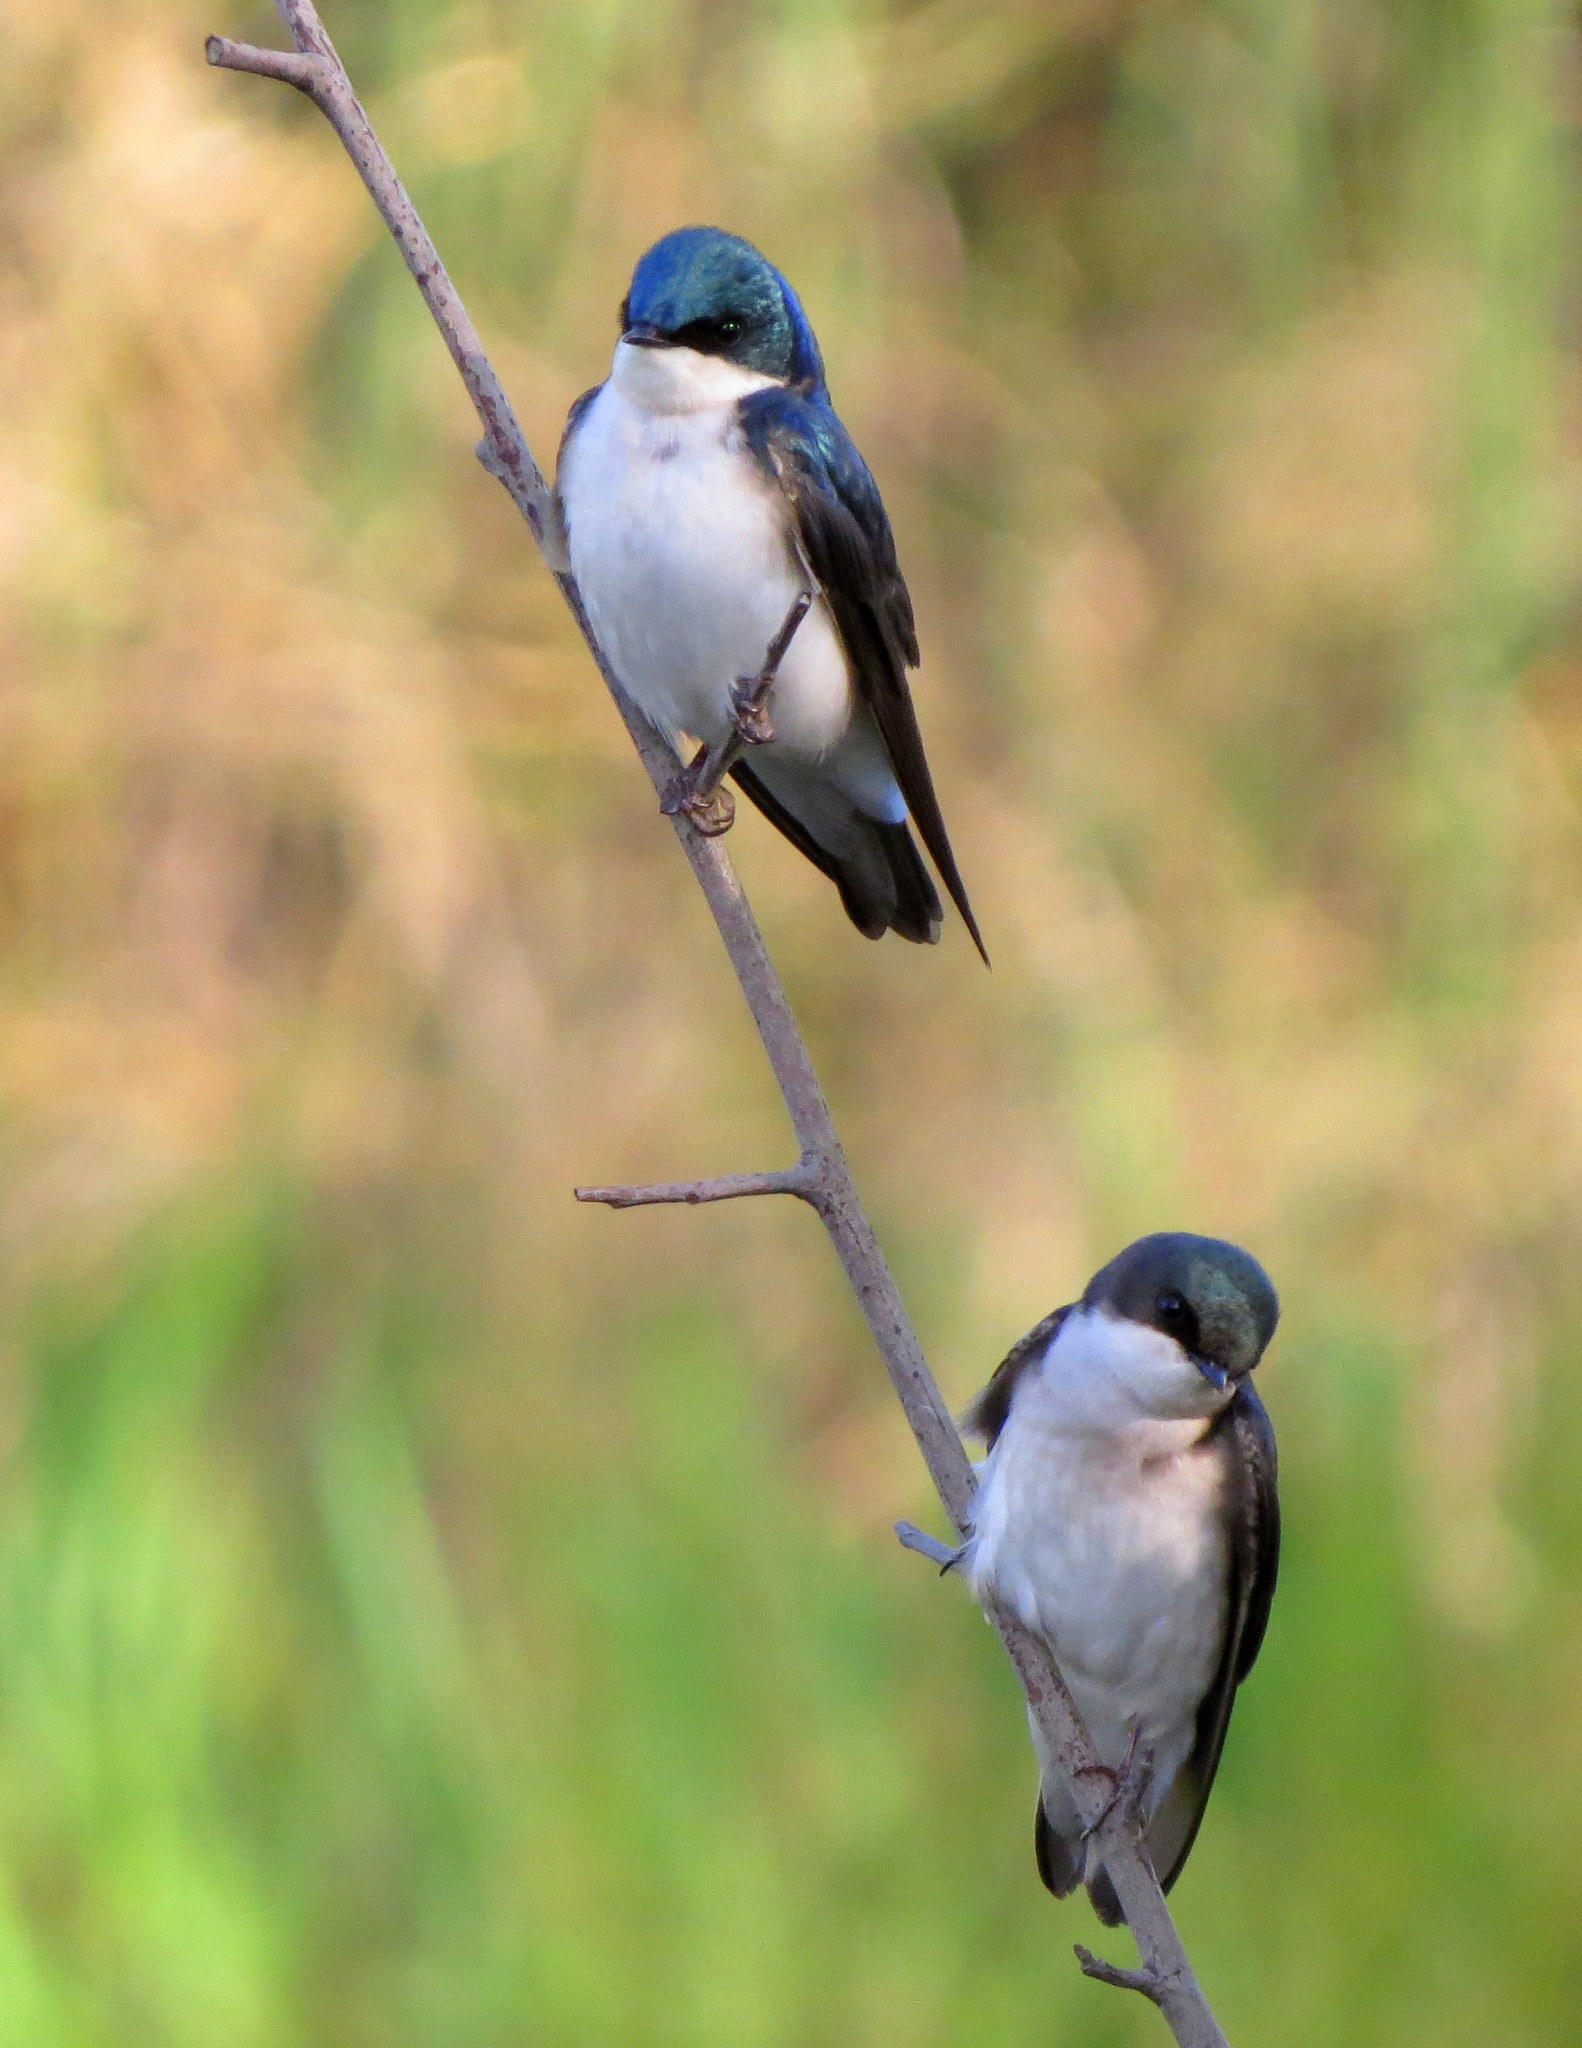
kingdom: Animalia
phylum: Chordata
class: Aves
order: Passeriformes
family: Hirundinidae
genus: Tachycineta
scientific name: Tachycineta bicolor
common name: Tree swallow
